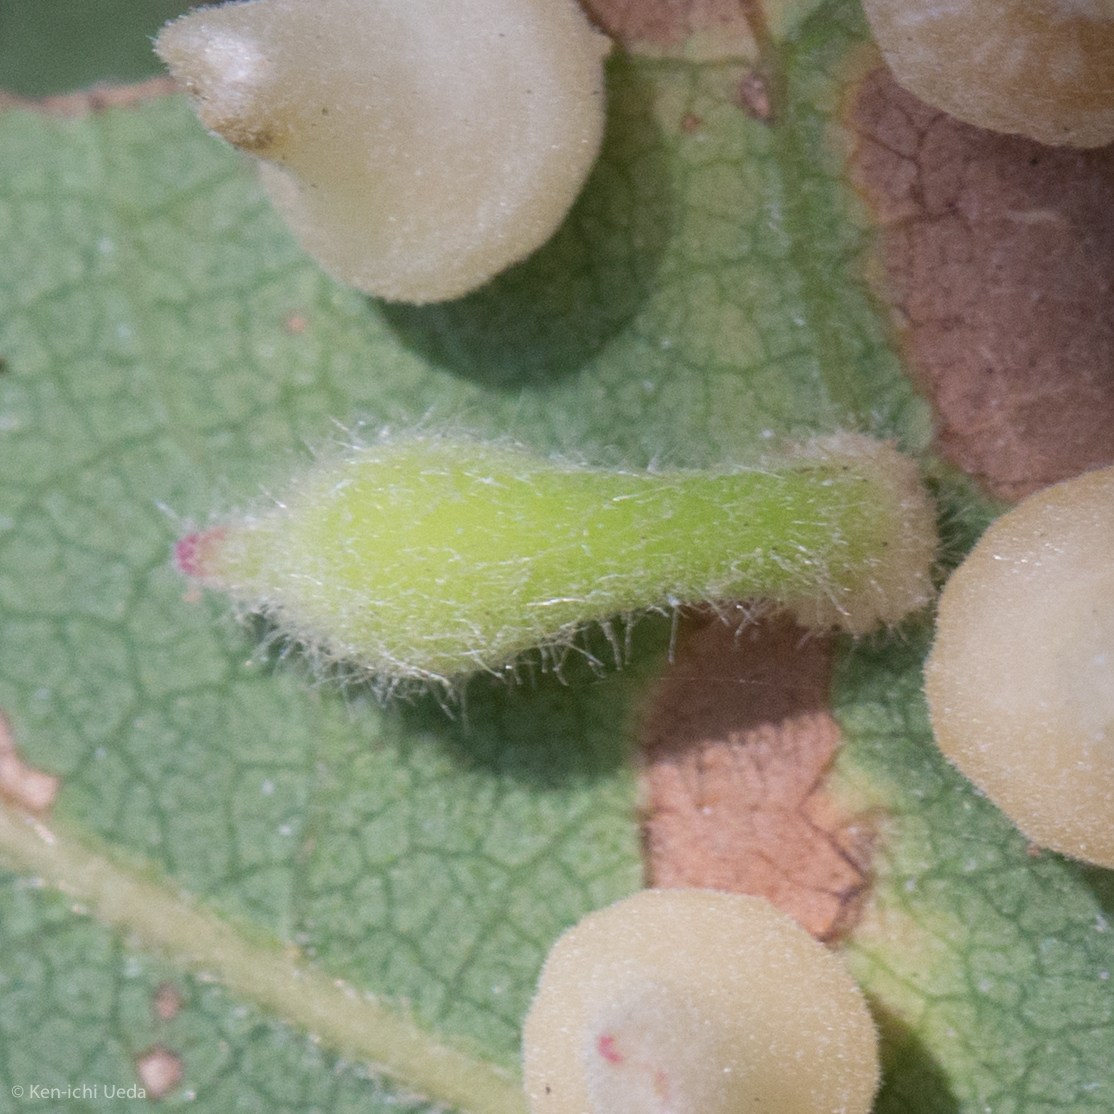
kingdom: Animalia
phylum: Arthropoda
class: Insecta
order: Hymenoptera
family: Cynipidae
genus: Atrusca
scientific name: Atrusca
